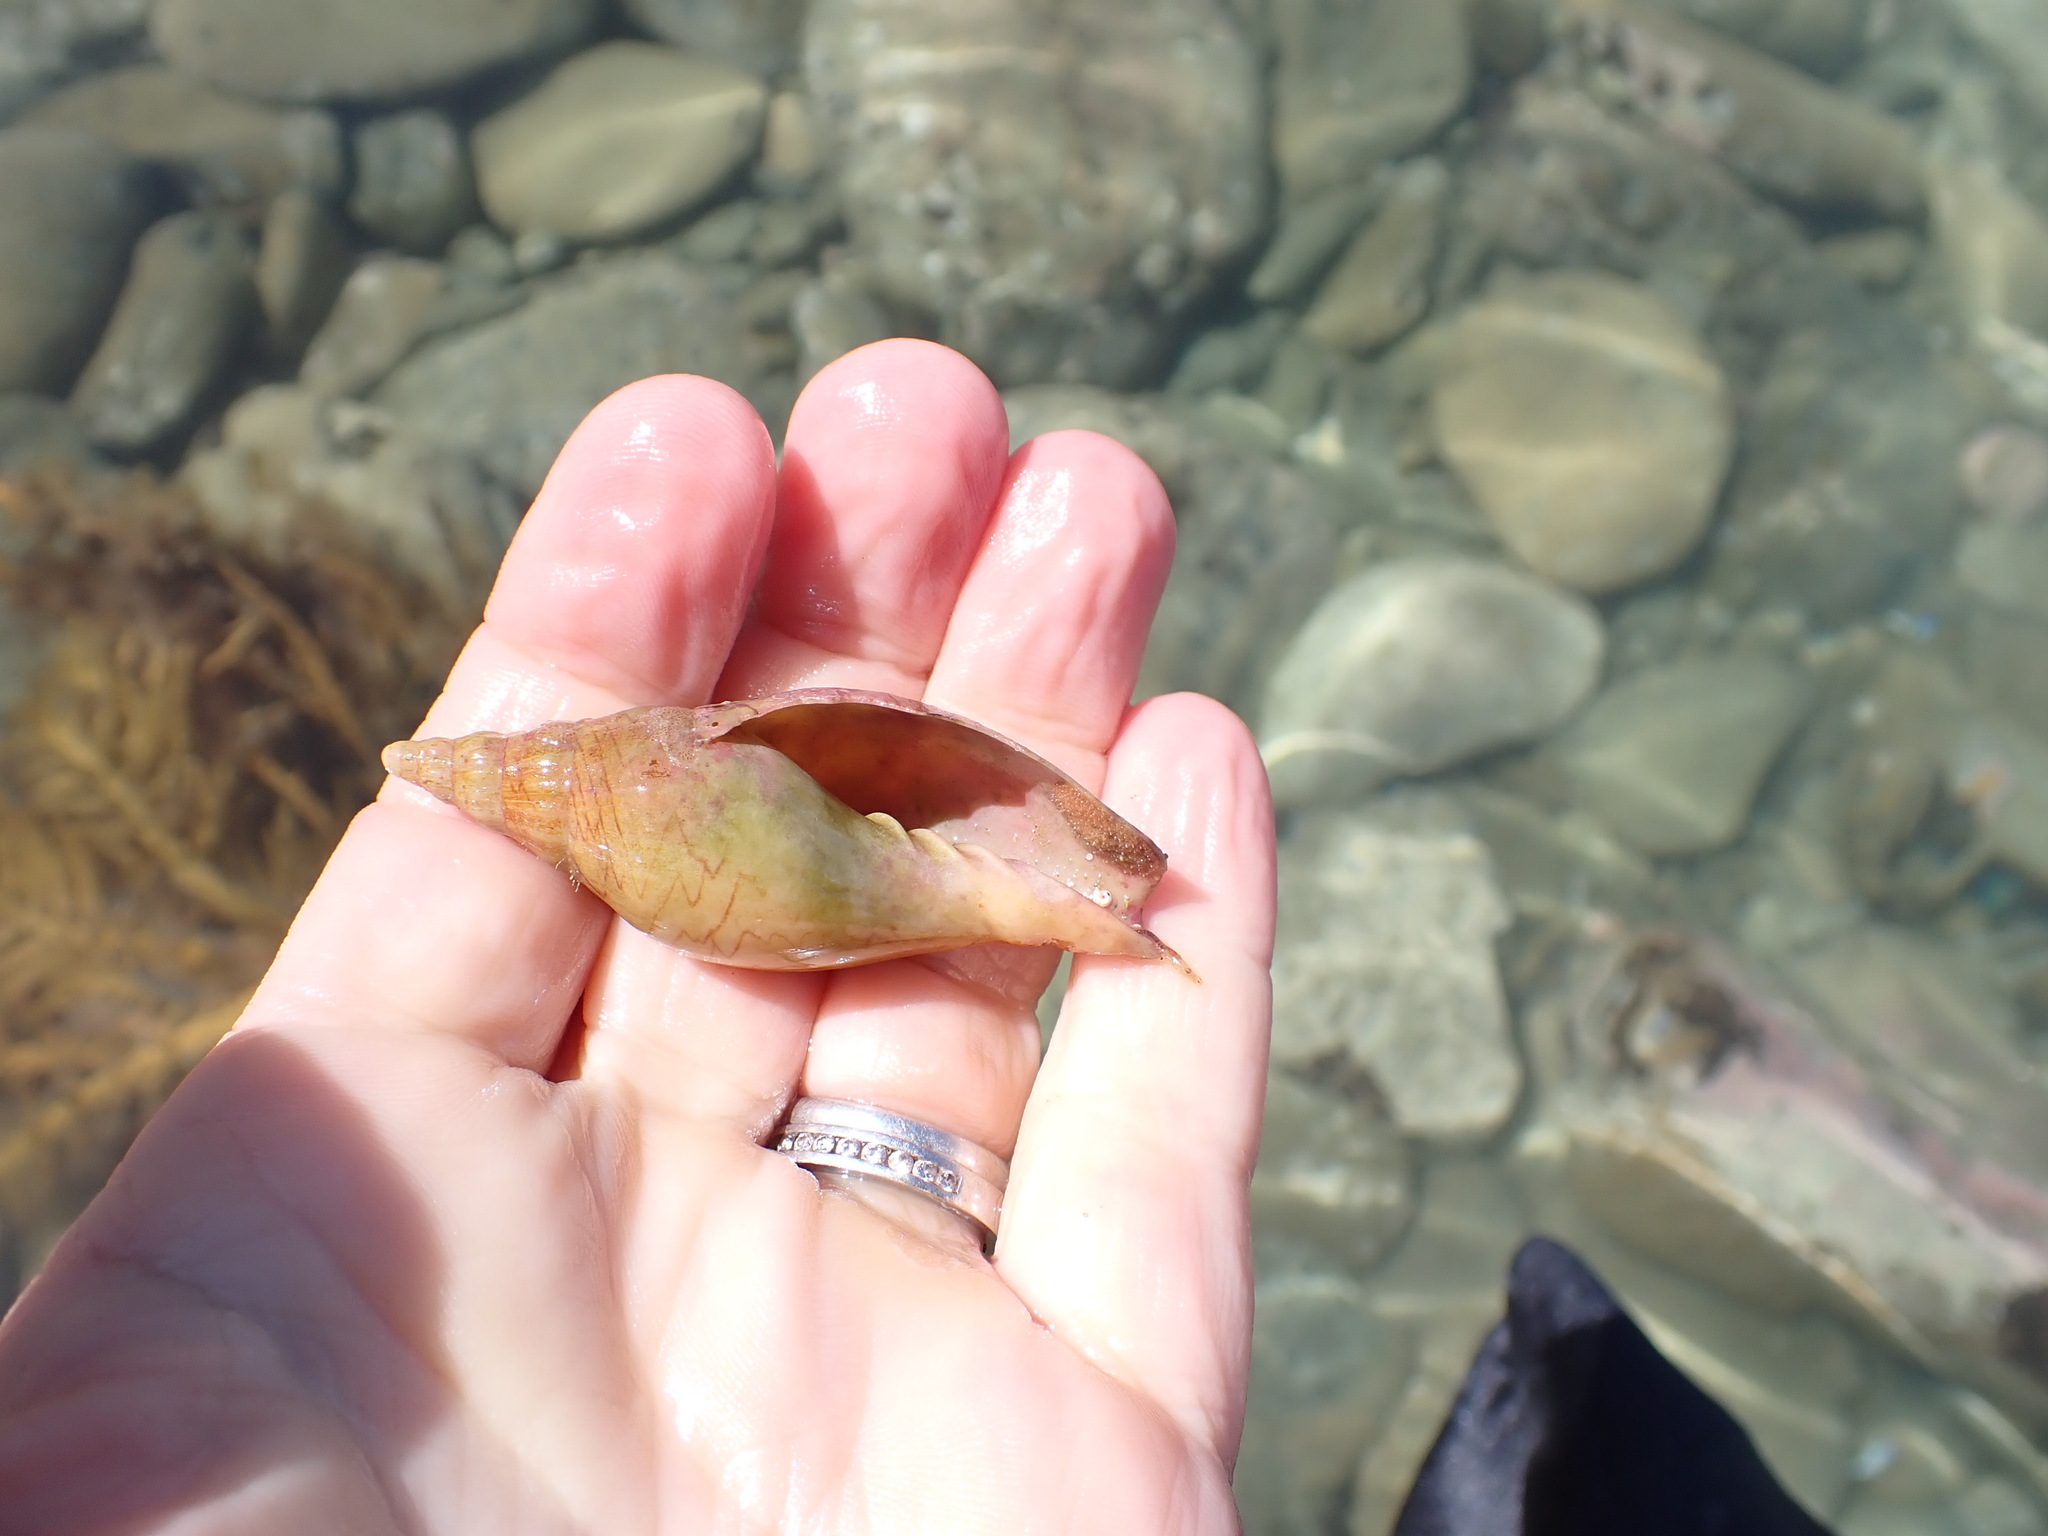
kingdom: Animalia
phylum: Mollusca
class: Gastropoda
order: Neogastropoda
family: Volutidae
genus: Alcithoe
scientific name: Alcithoe fusus
